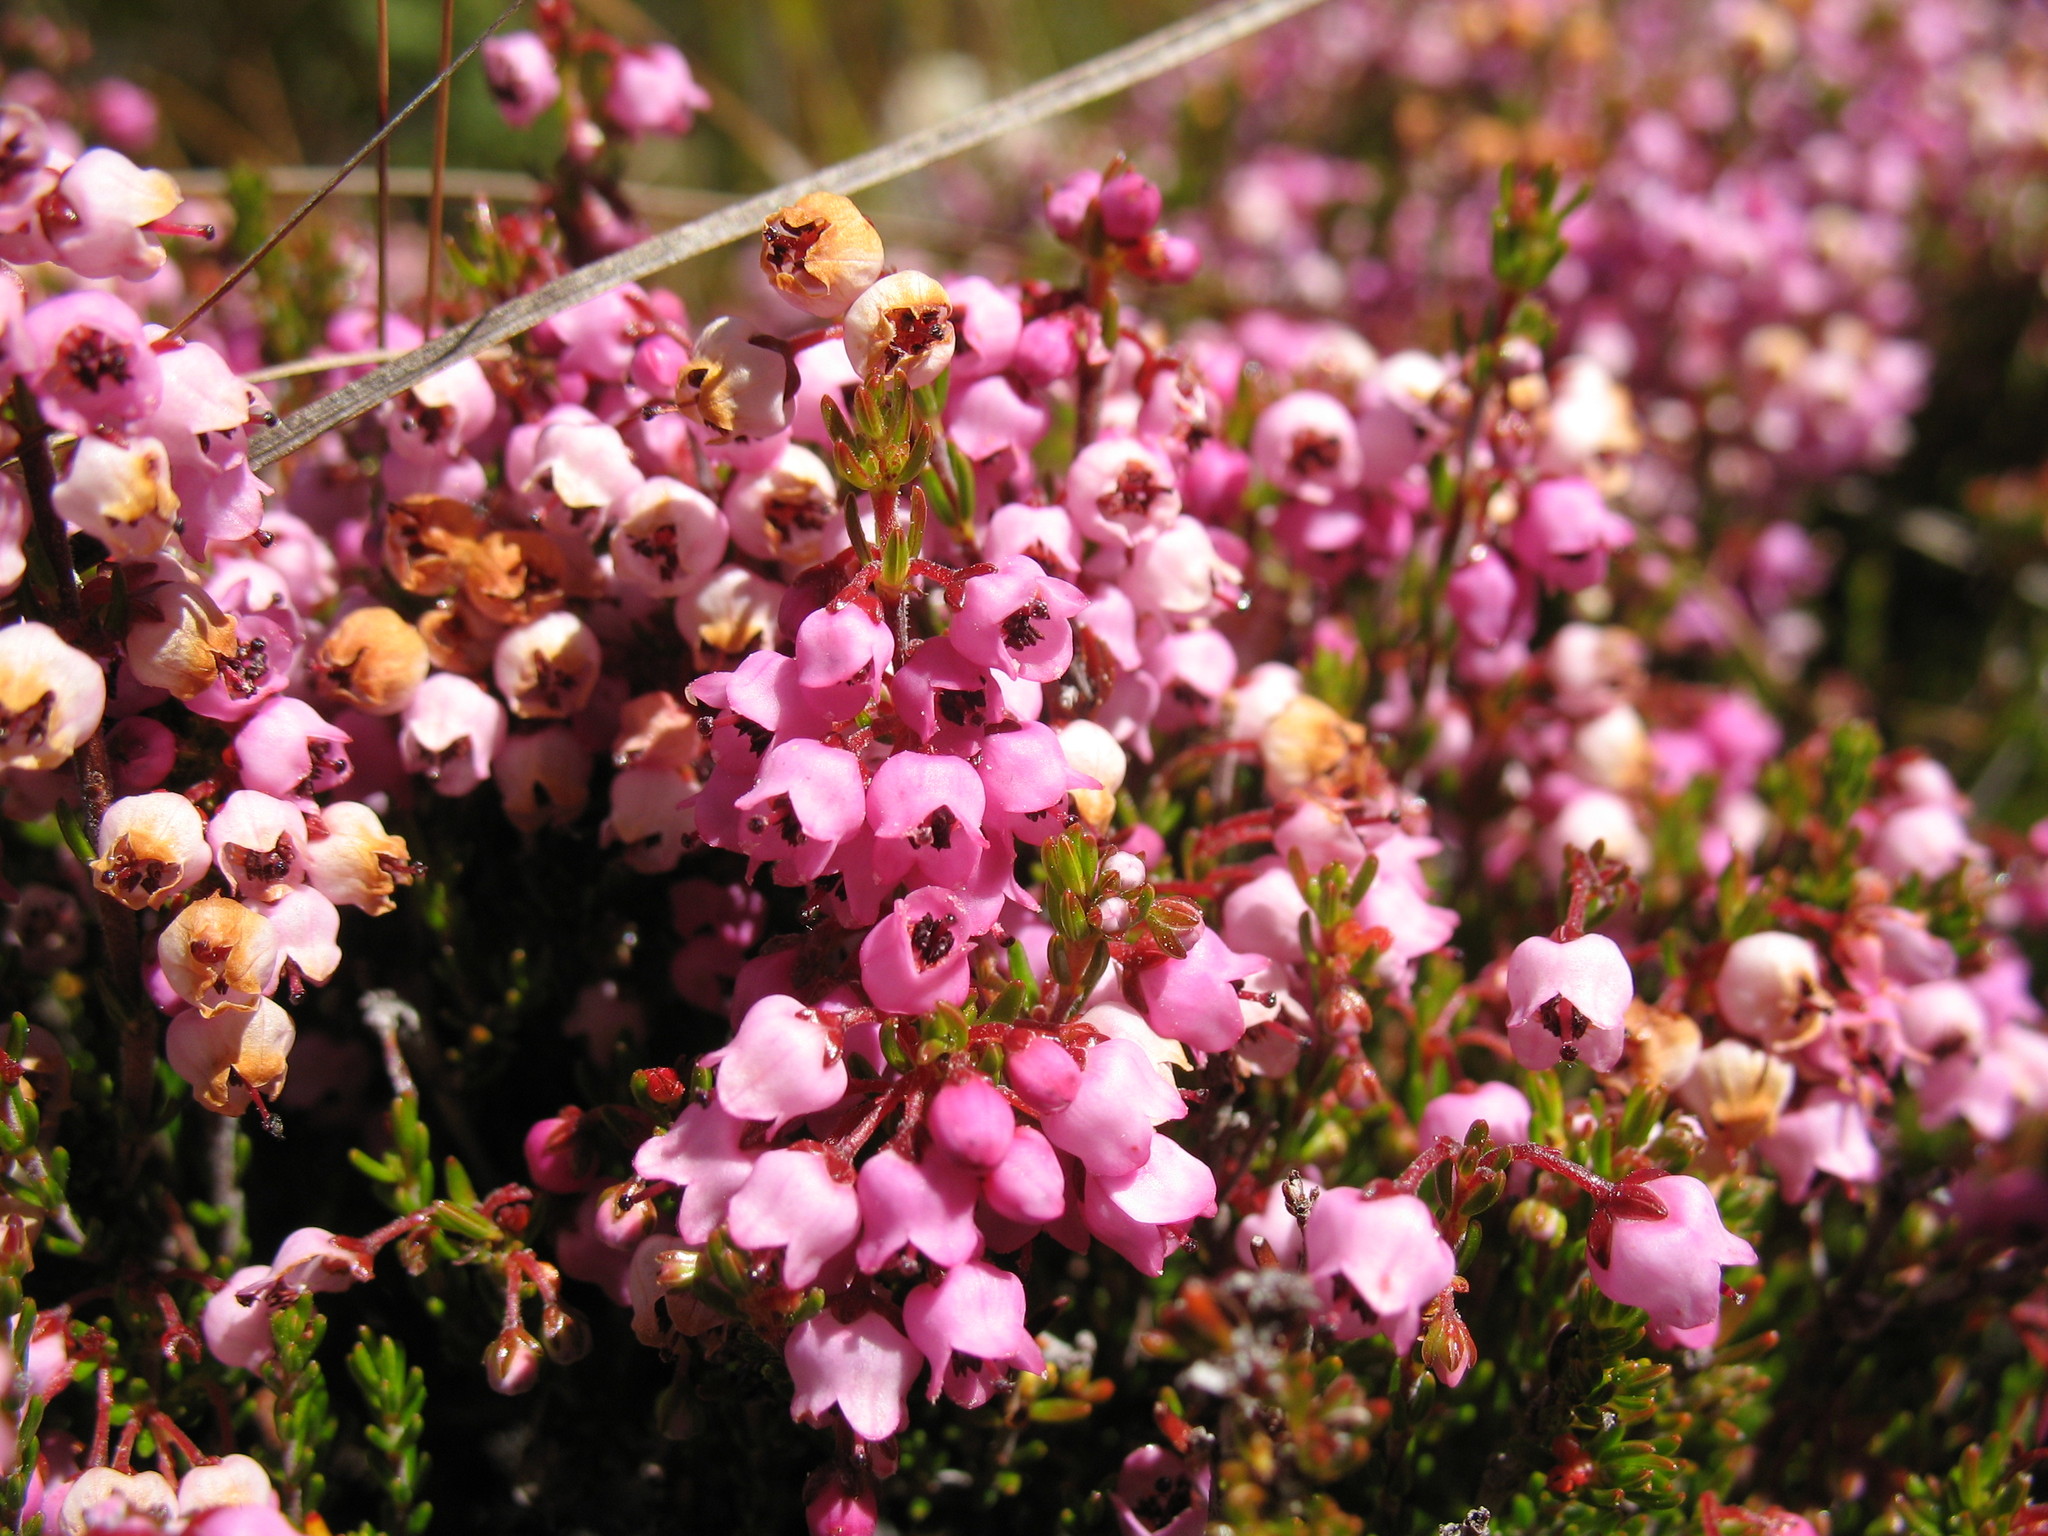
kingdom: Plantae
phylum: Tracheophyta
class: Magnoliopsida
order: Ericales
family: Ericaceae
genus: Erica
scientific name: Erica lateralis
